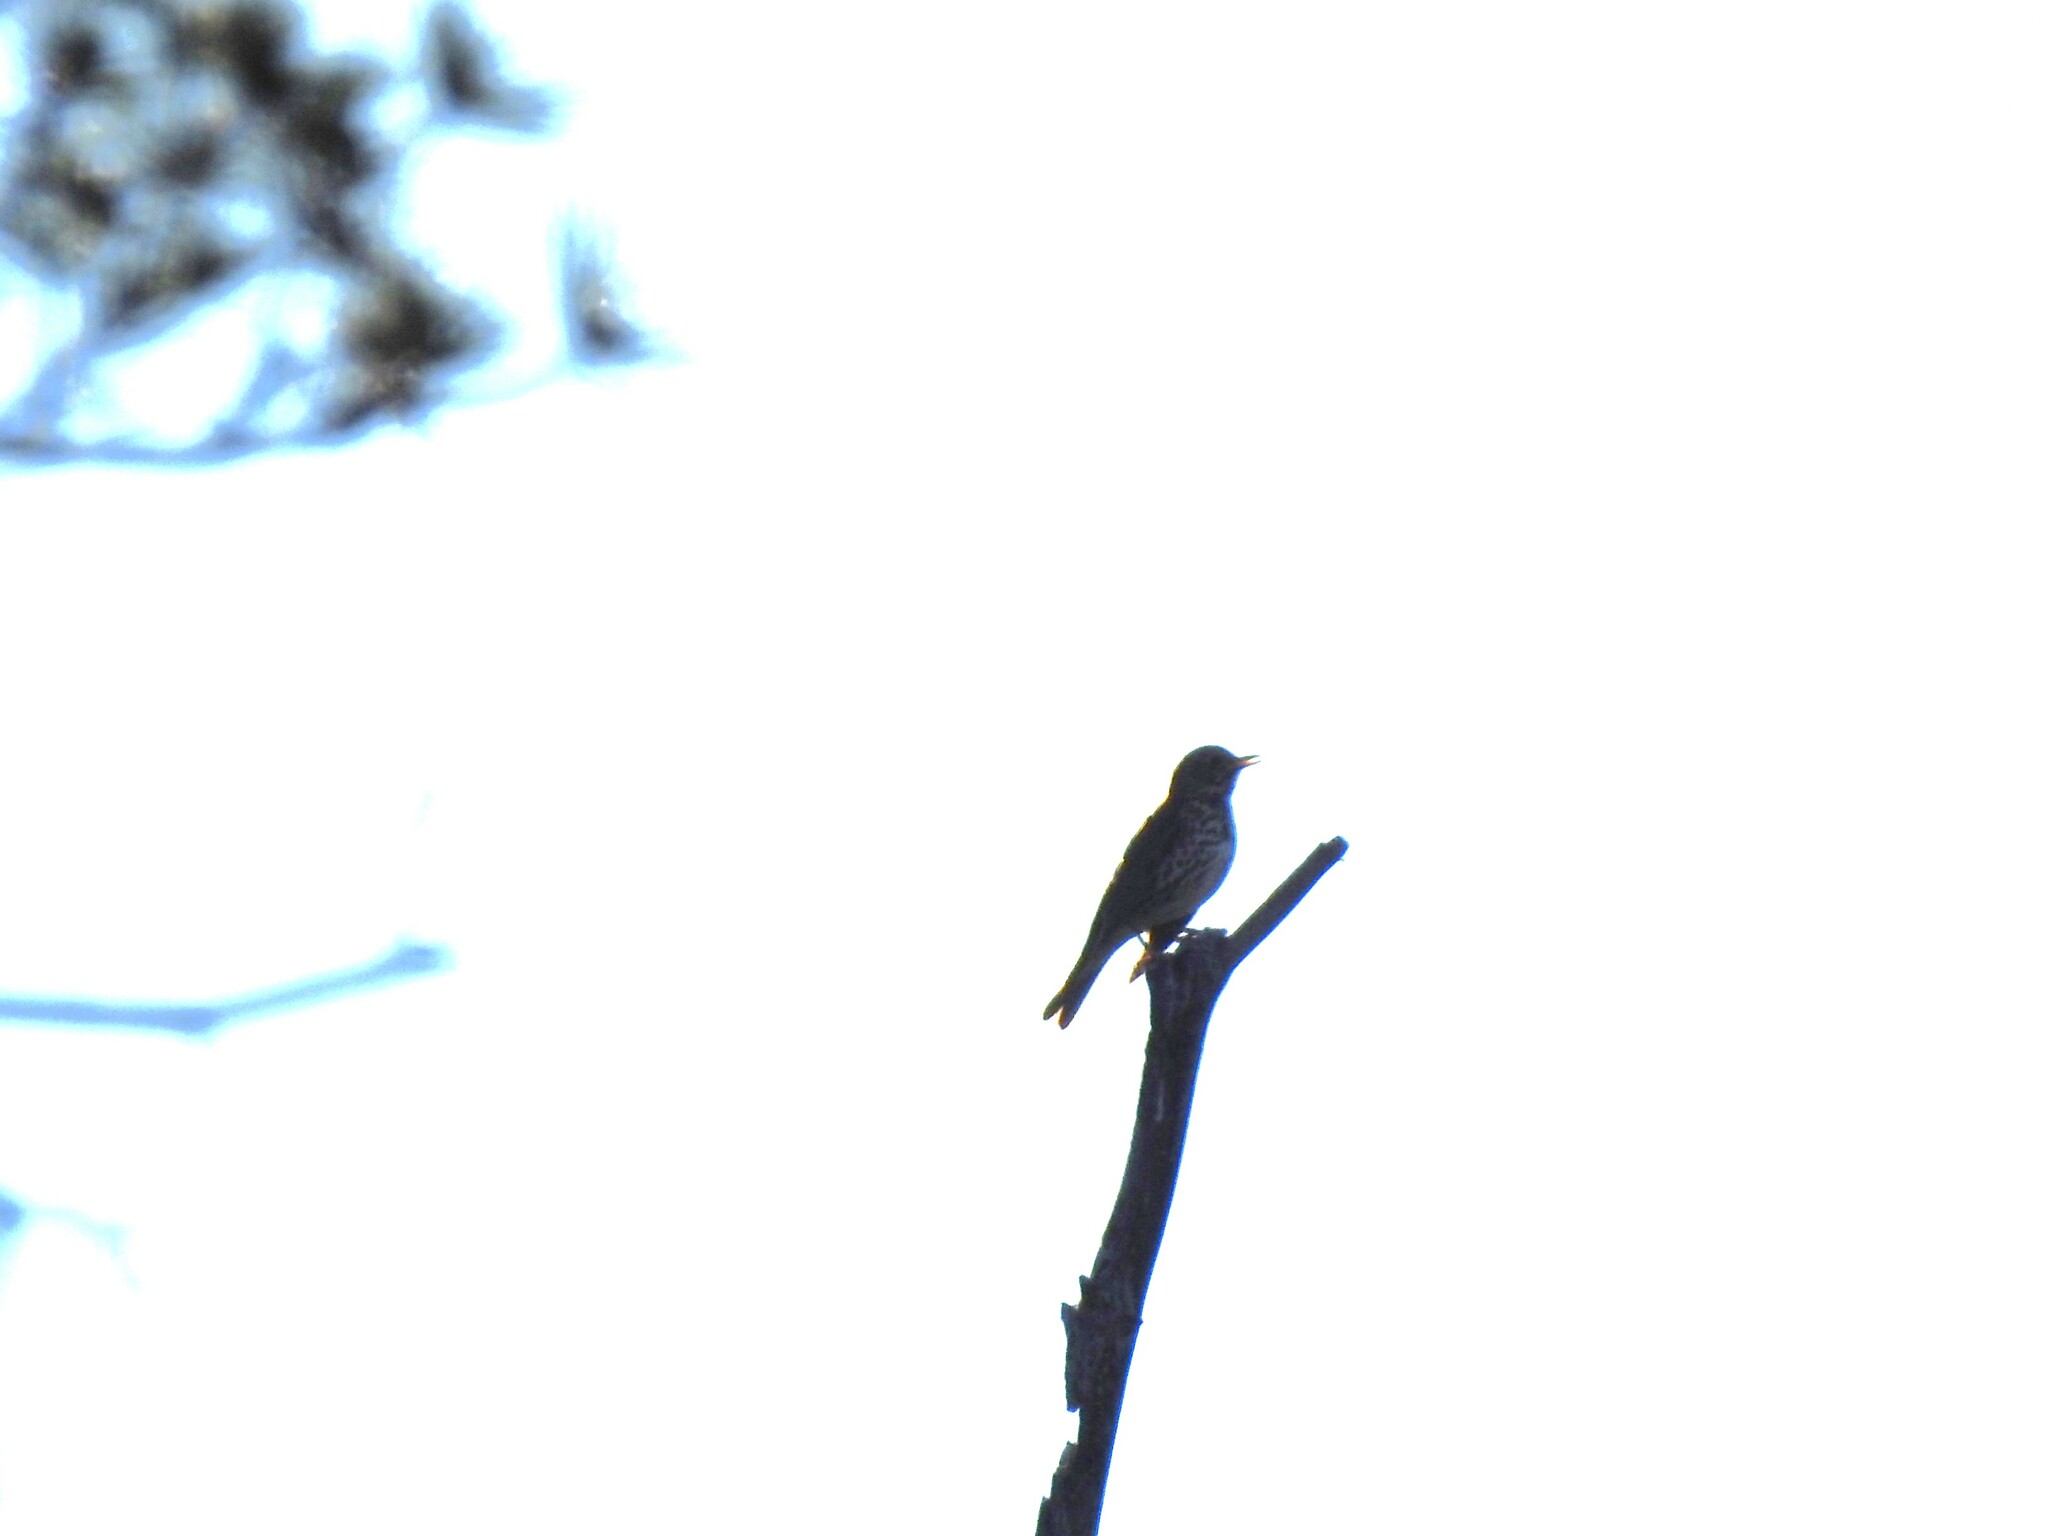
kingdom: Animalia
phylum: Chordata
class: Aves
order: Passeriformes
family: Turdidae
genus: Turdus
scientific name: Turdus philomelos
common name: Song thrush
